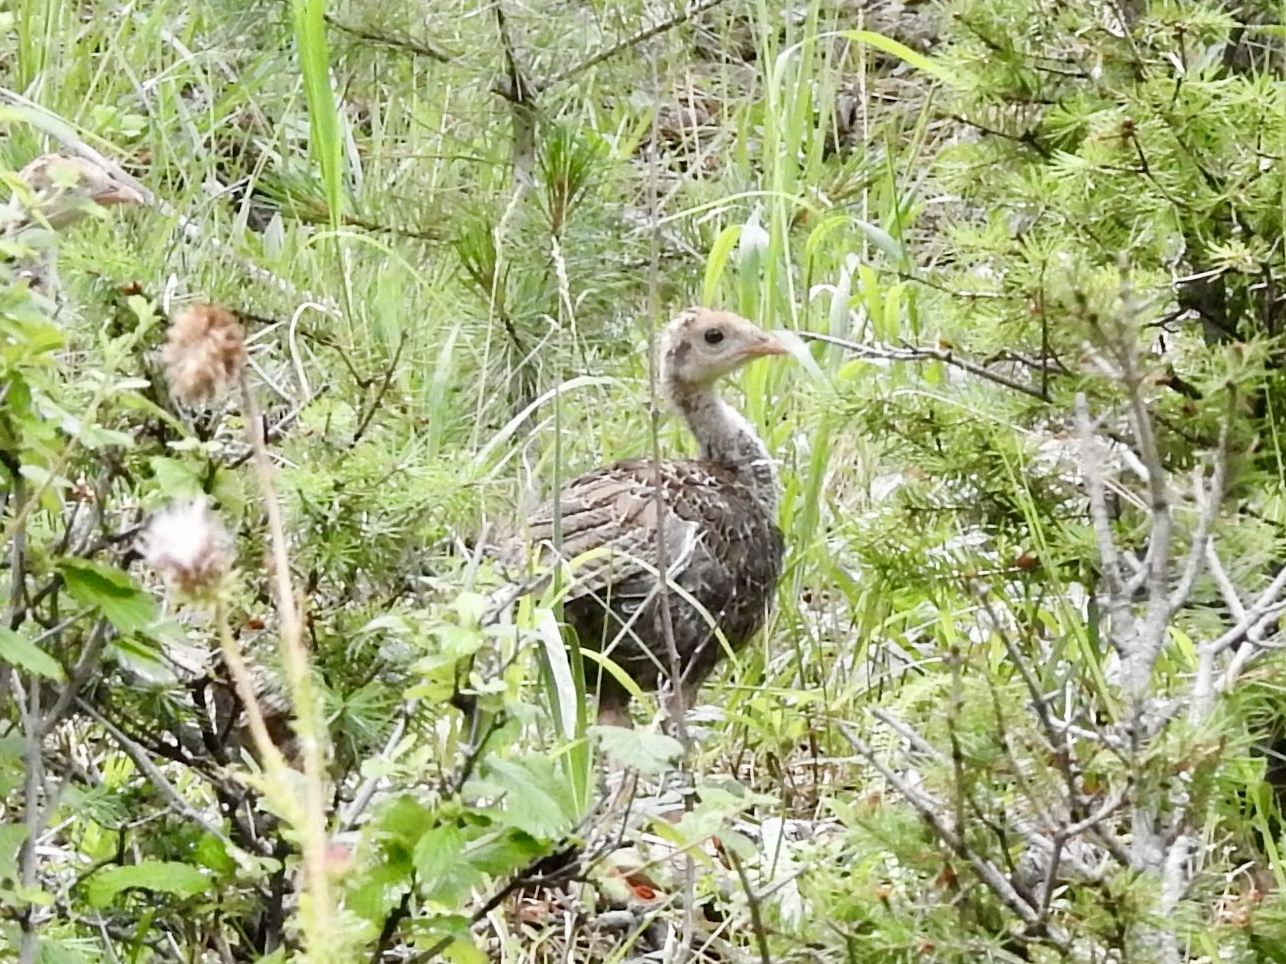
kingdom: Animalia
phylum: Chordata
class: Aves
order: Galliformes
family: Phasianidae
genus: Meleagris
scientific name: Meleagris gallopavo
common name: Wild turkey
